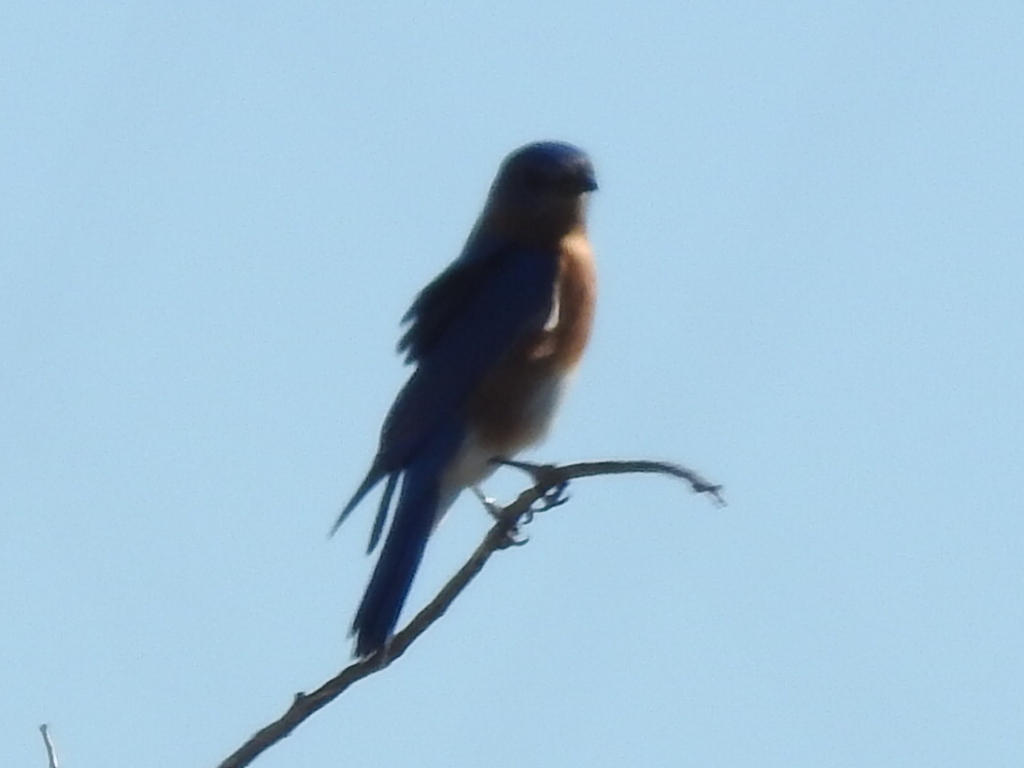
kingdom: Animalia
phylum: Chordata
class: Aves
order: Passeriformes
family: Turdidae
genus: Sialia
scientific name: Sialia sialis
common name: Eastern bluebird
